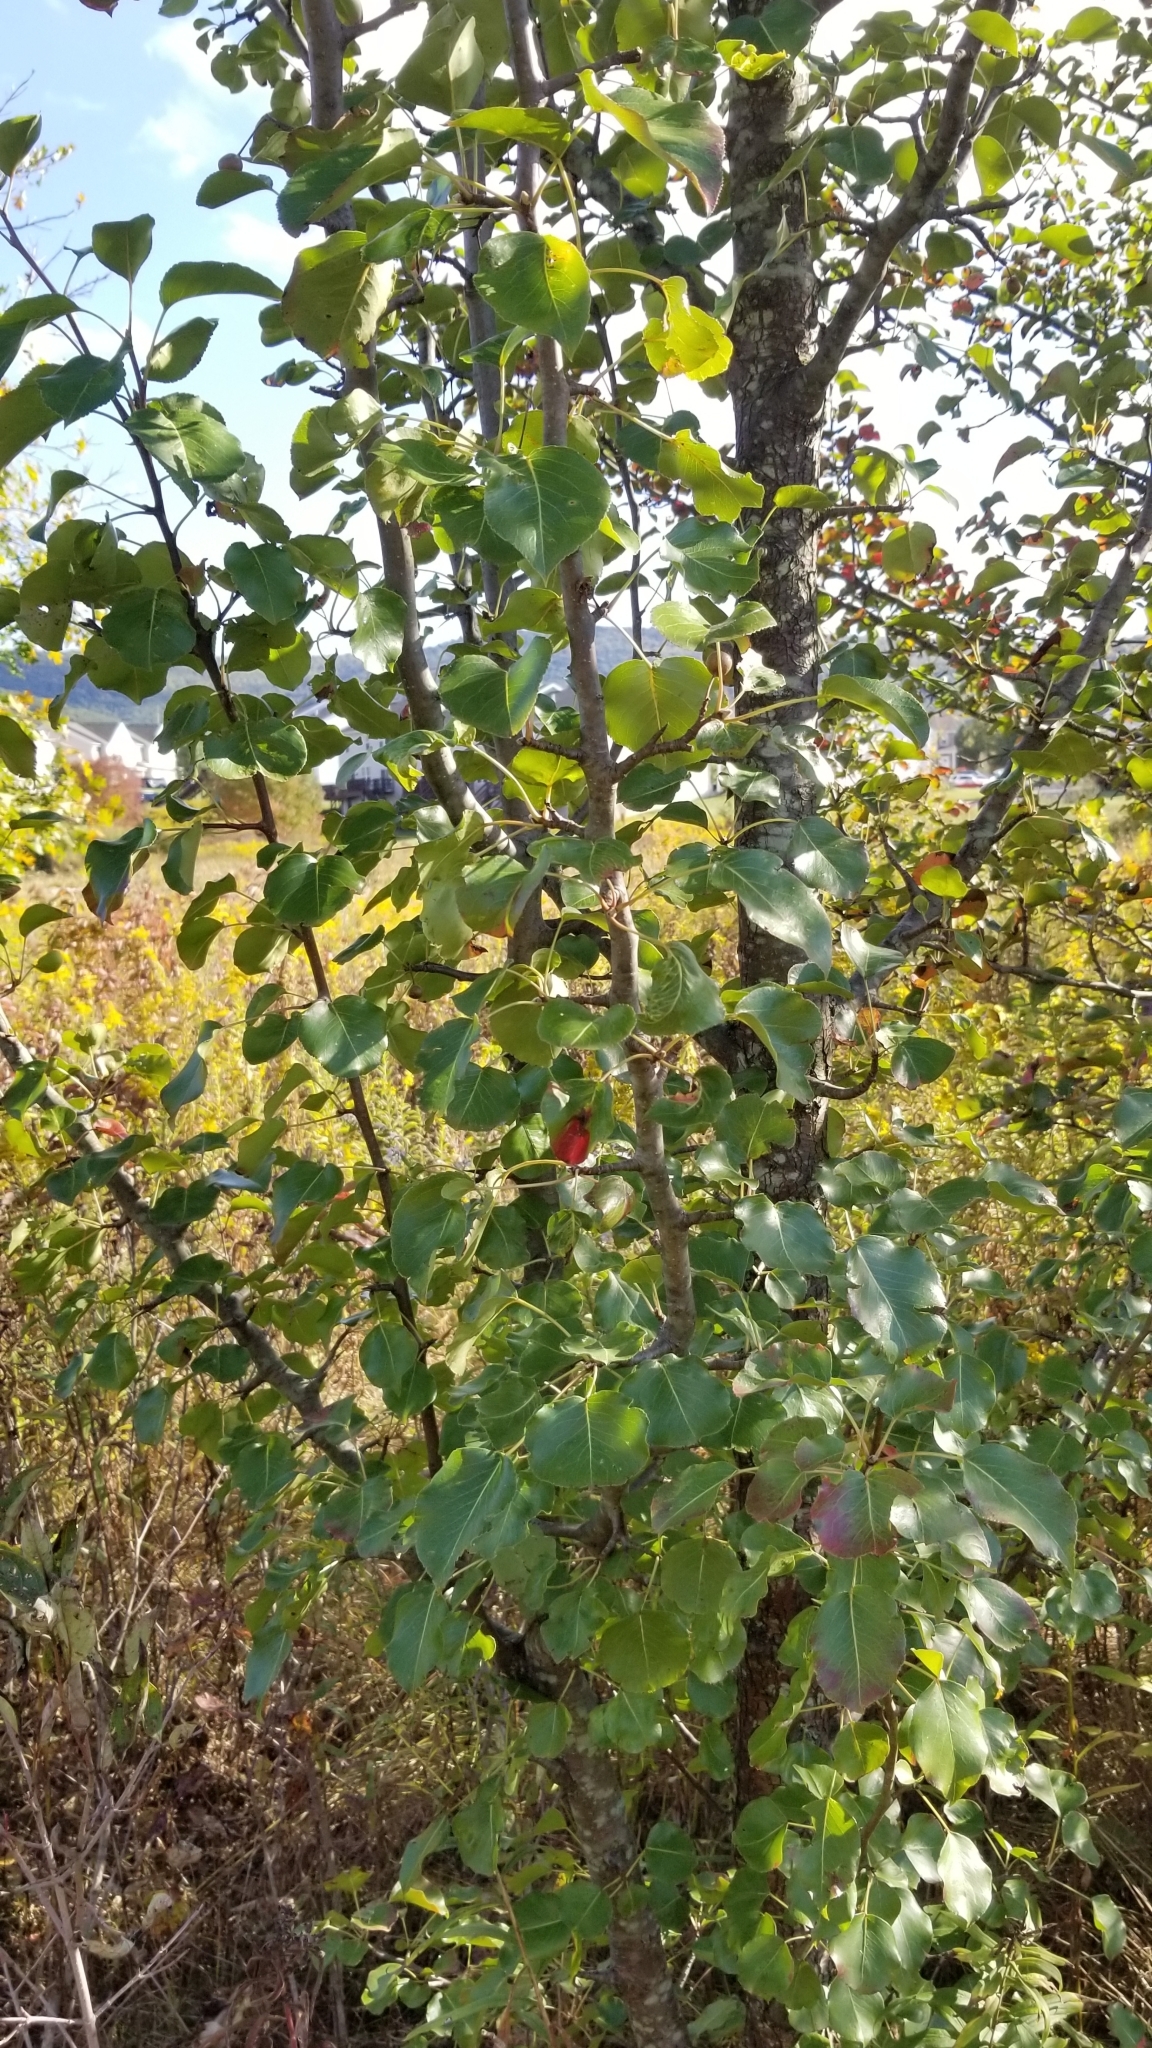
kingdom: Plantae
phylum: Tracheophyta
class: Magnoliopsida
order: Rosales
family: Rosaceae
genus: Pyrus
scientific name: Pyrus calleryana
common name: Callery pear
